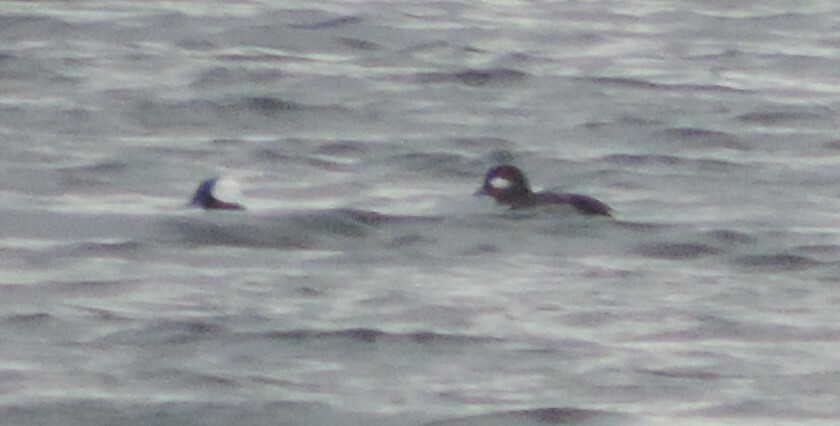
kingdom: Animalia
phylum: Chordata
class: Aves
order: Anseriformes
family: Anatidae
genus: Bucephala
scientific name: Bucephala albeola
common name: Bufflehead
